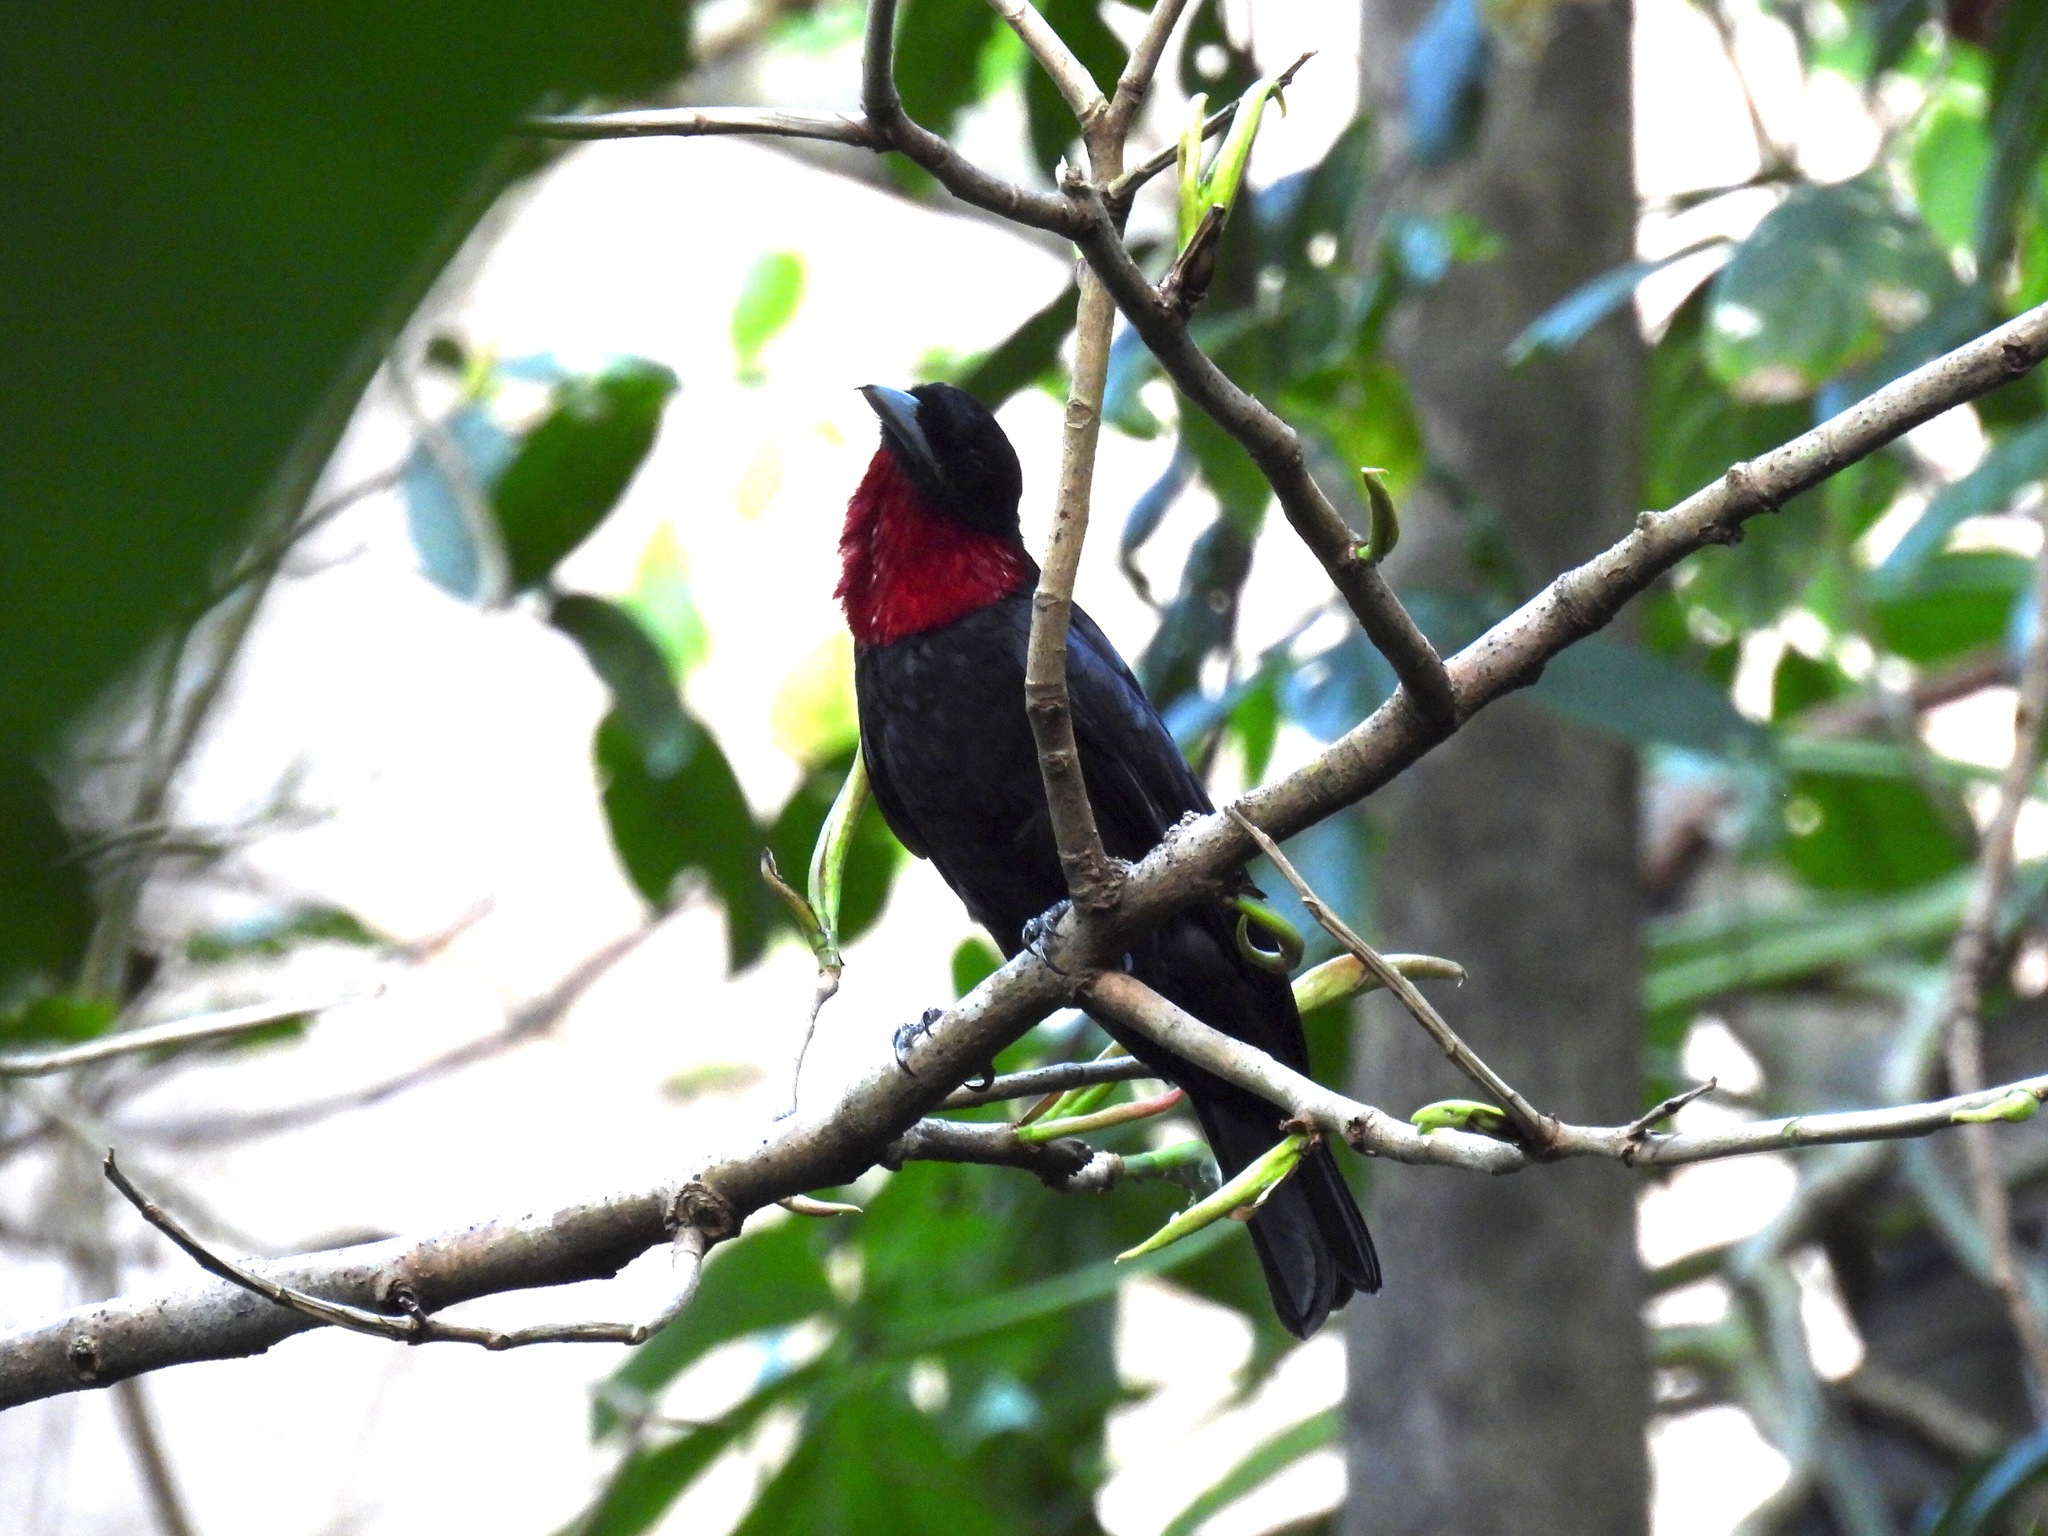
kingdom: Animalia
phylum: Chordata
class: Aves
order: Passeriformes
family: Cotingidae
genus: Querula
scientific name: Querula purpurata
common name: Purple-throated fruitcrow
